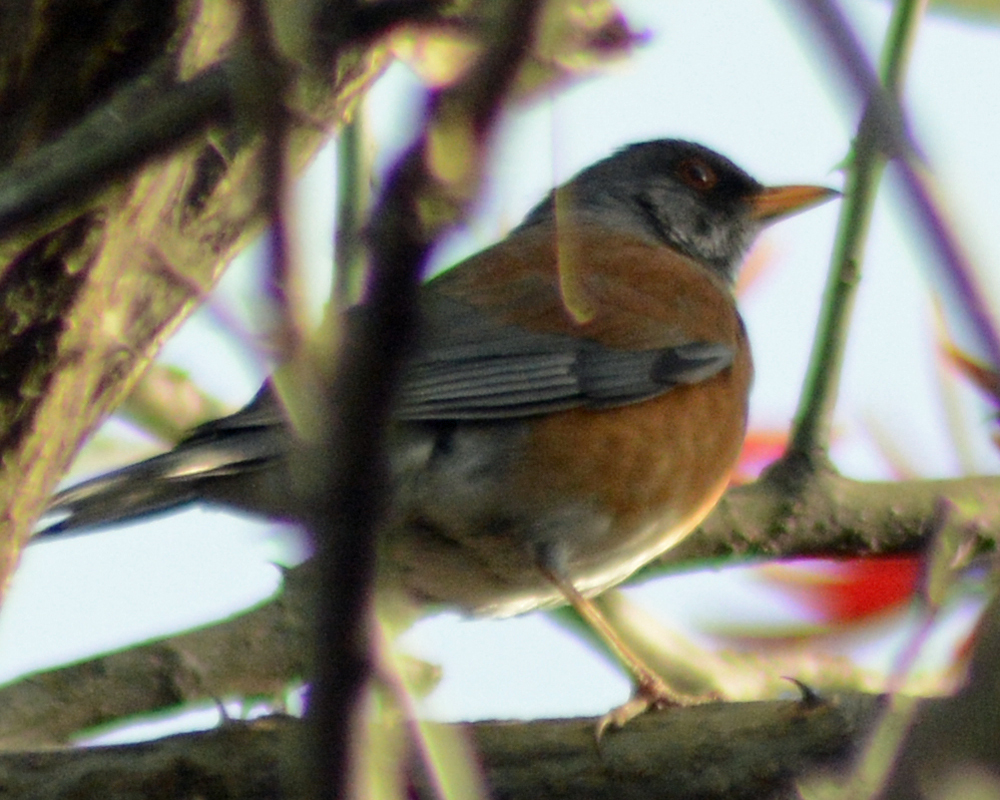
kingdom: Animalia
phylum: Chordata
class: Aves
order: Passeriformes
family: Turdidae
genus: Turdus
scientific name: Turdus rufopalliatus
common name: Rufous-backed robin
